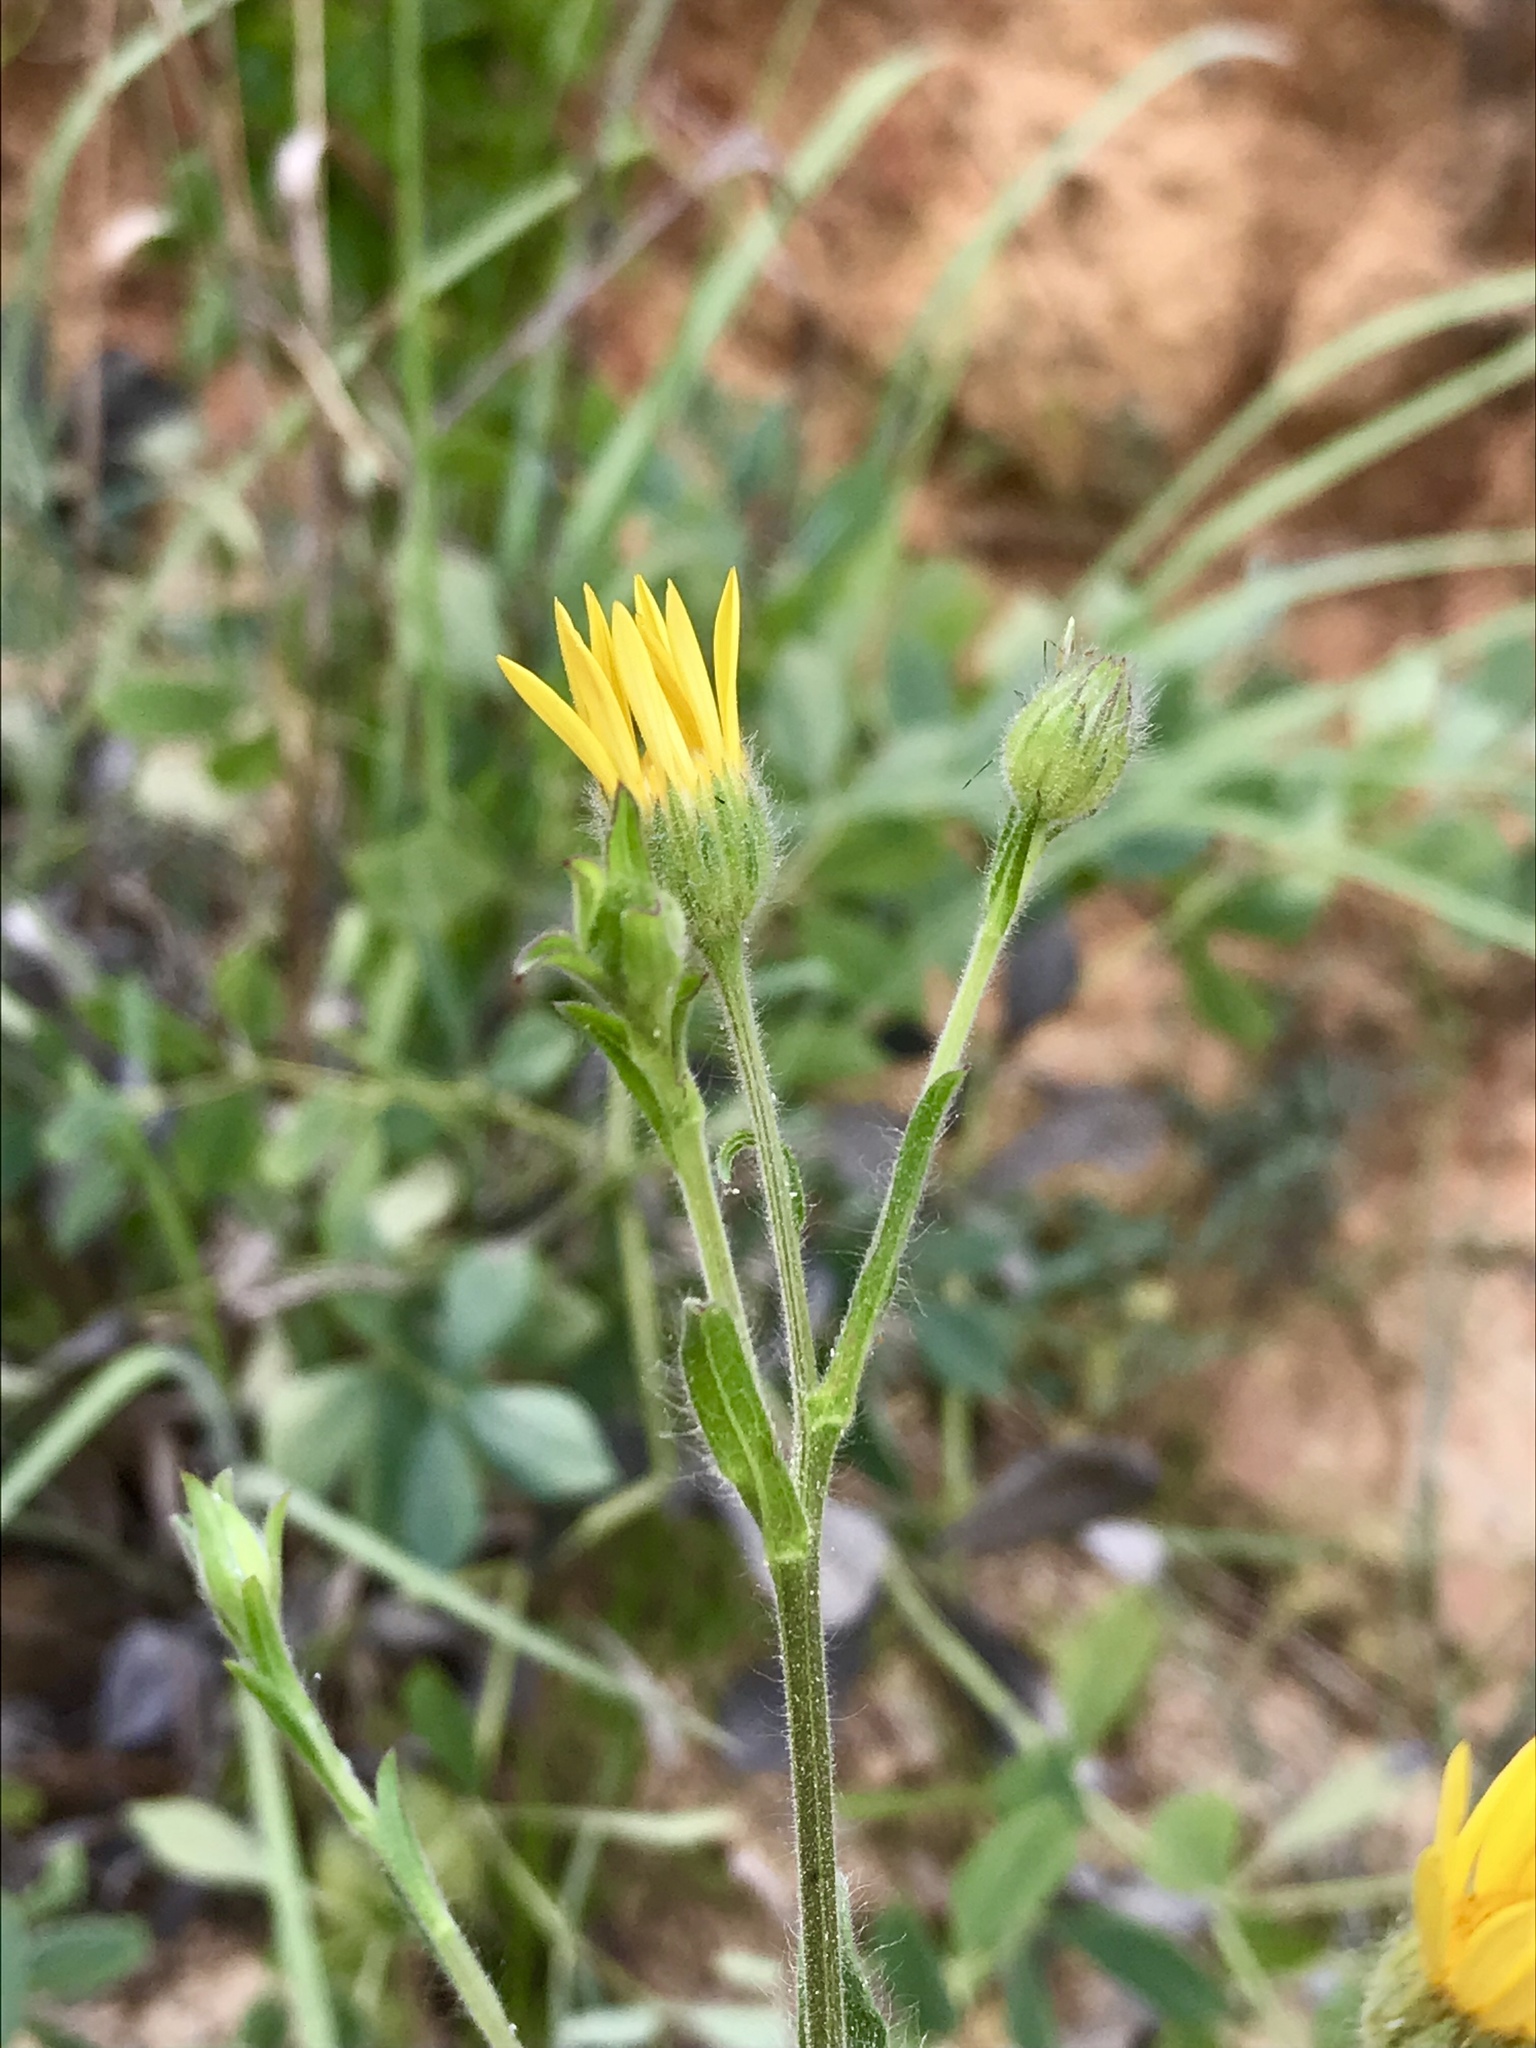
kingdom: Plantae
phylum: Tracheophyta
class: Magnoliopsida
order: Asterales
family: Asteraceae
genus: Bradburia
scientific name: Bradburia pilosa
